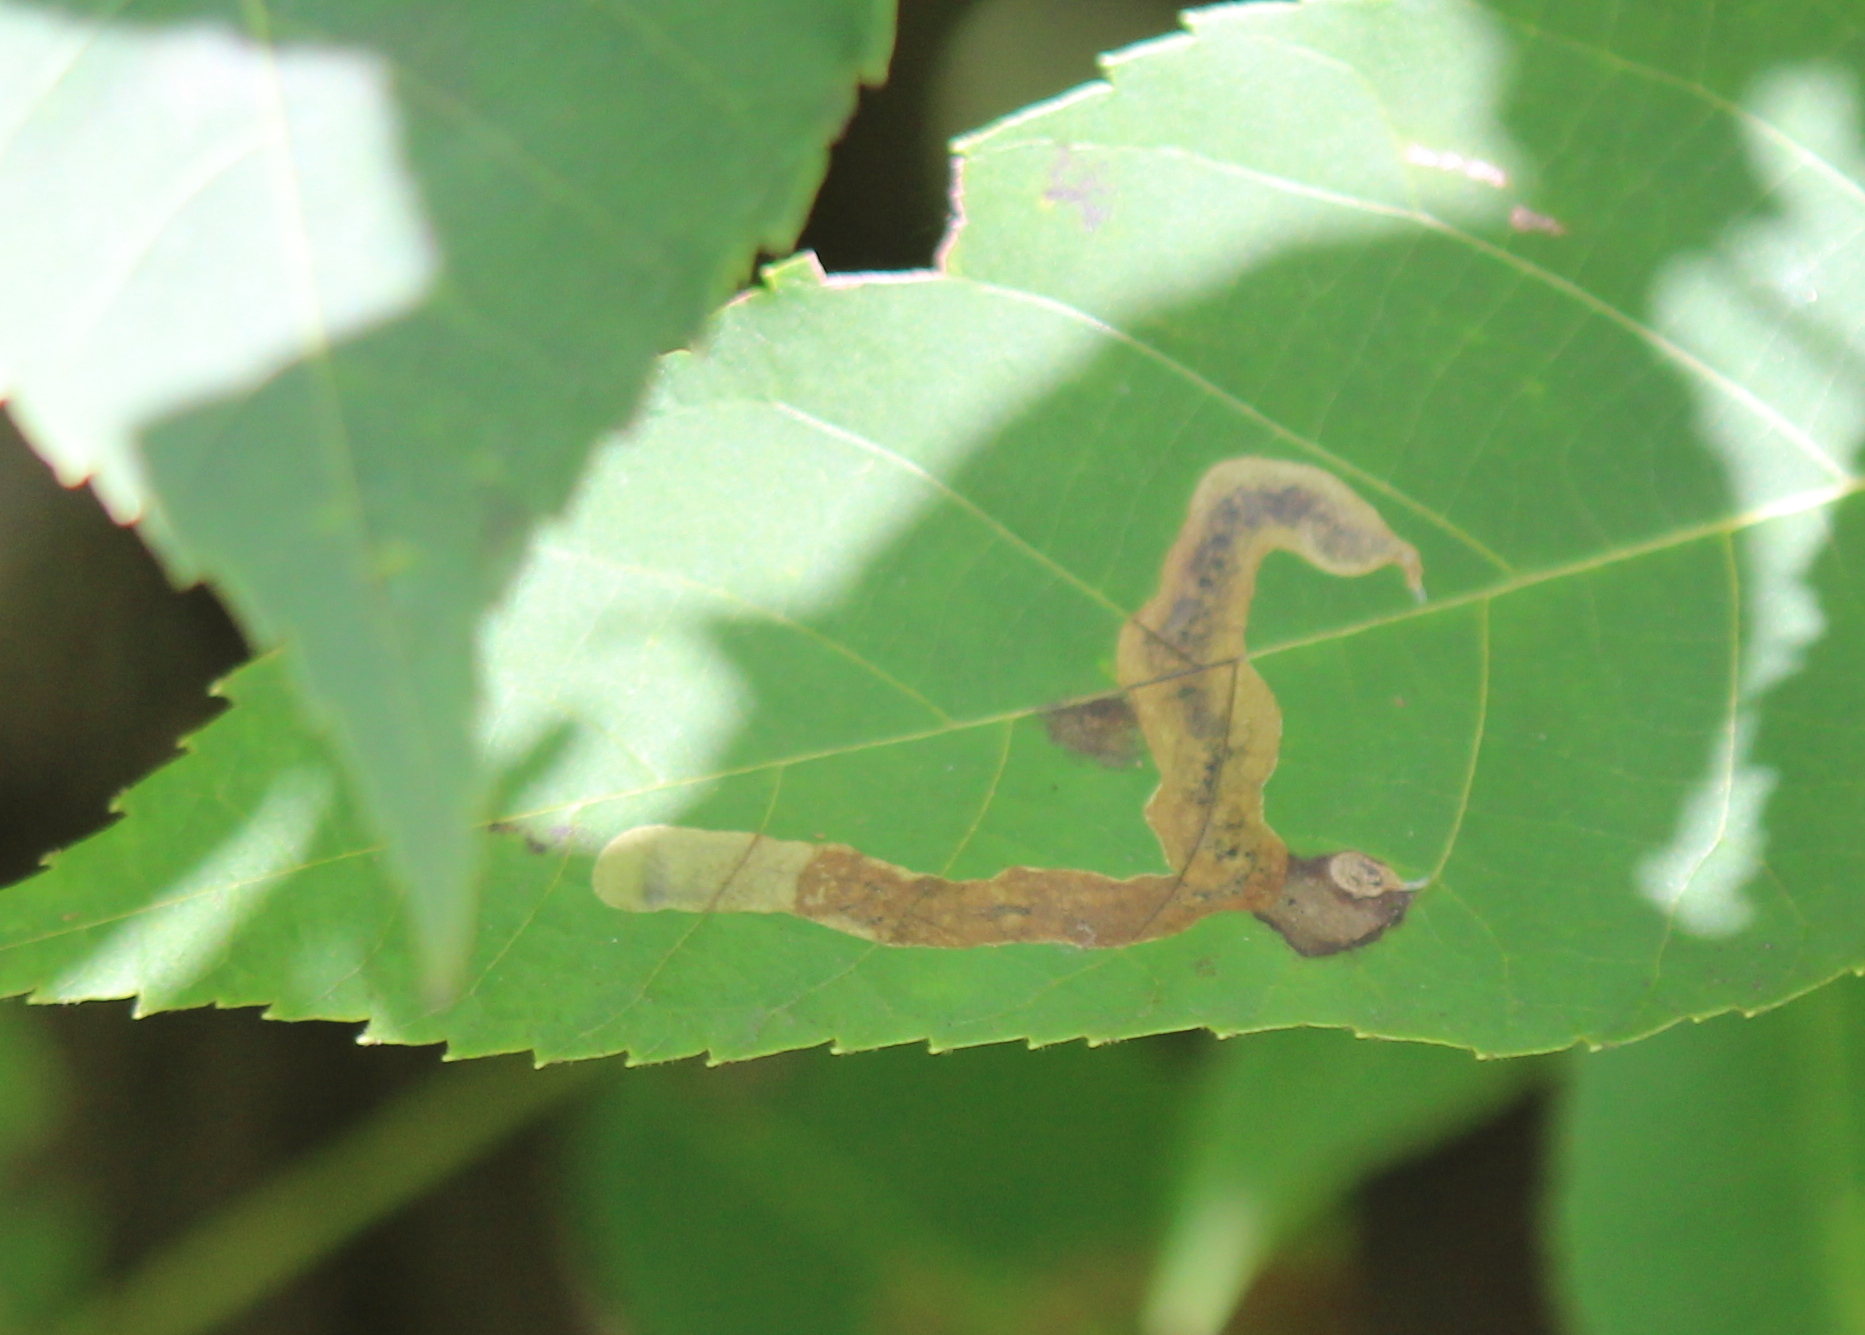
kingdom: Animalia
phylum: Arthropoda
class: Insecta
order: Lepidoptera
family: Gracillariidae
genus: Cameraria
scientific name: Cameraria caryaefoliella
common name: Pecan leafminer moth
